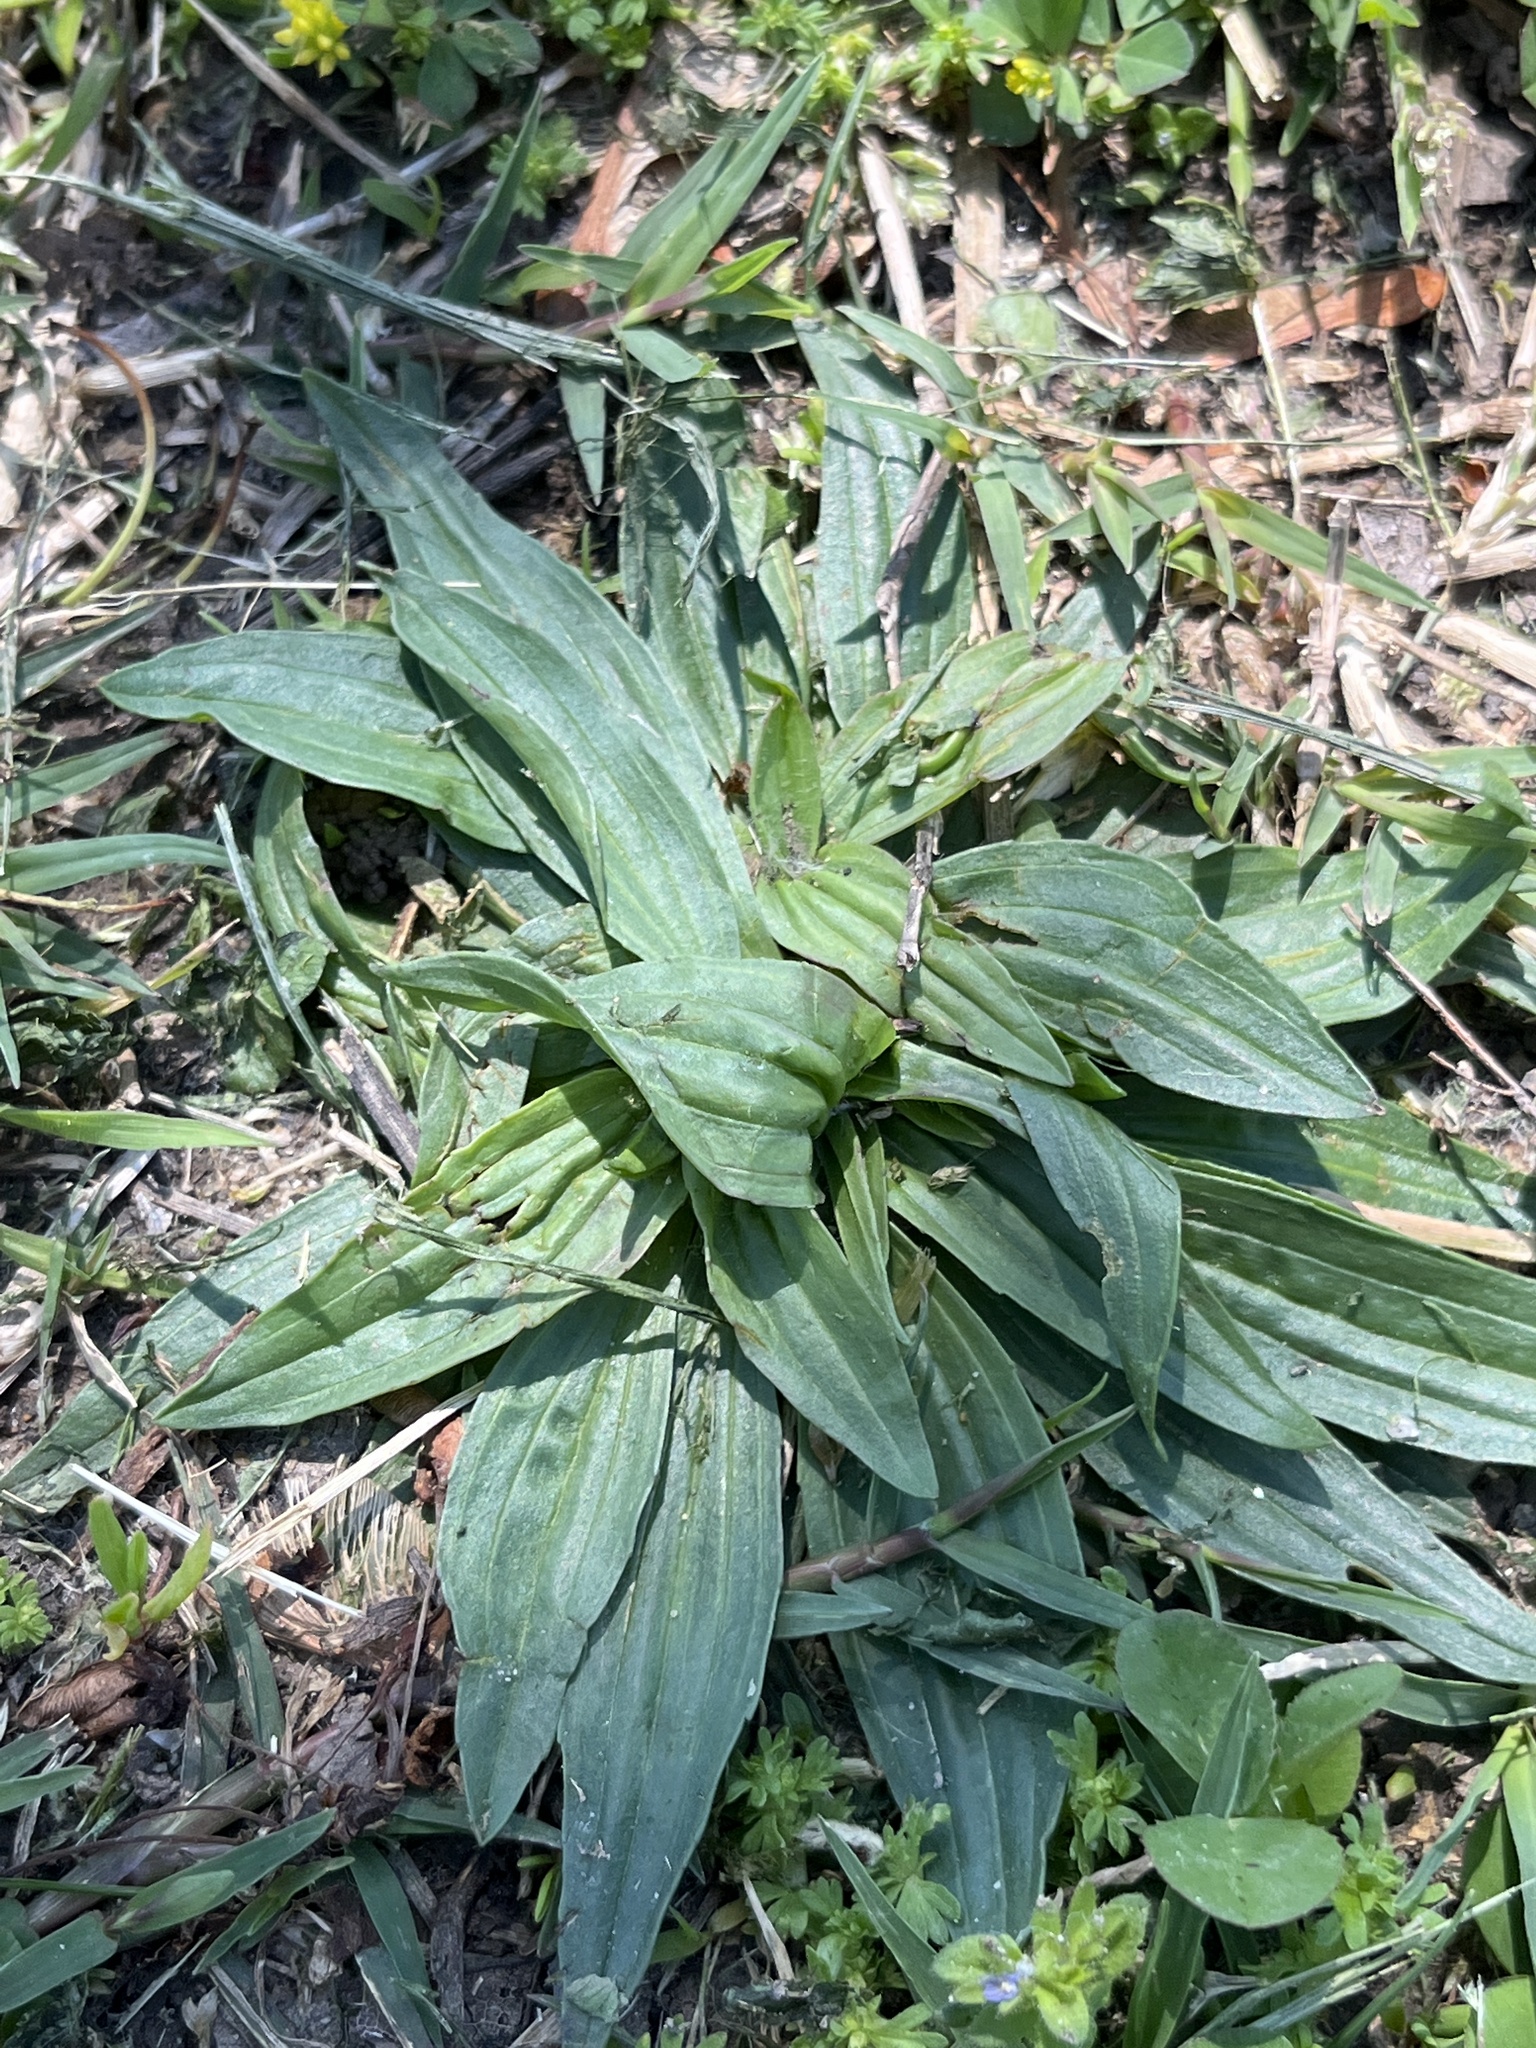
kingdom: Plantae
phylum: Tracheophyta
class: Magnoliopsida
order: Lamiales
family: Plantaginaceae
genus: Plantago
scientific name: Plantago lanceolata
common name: Ribwort plantain
